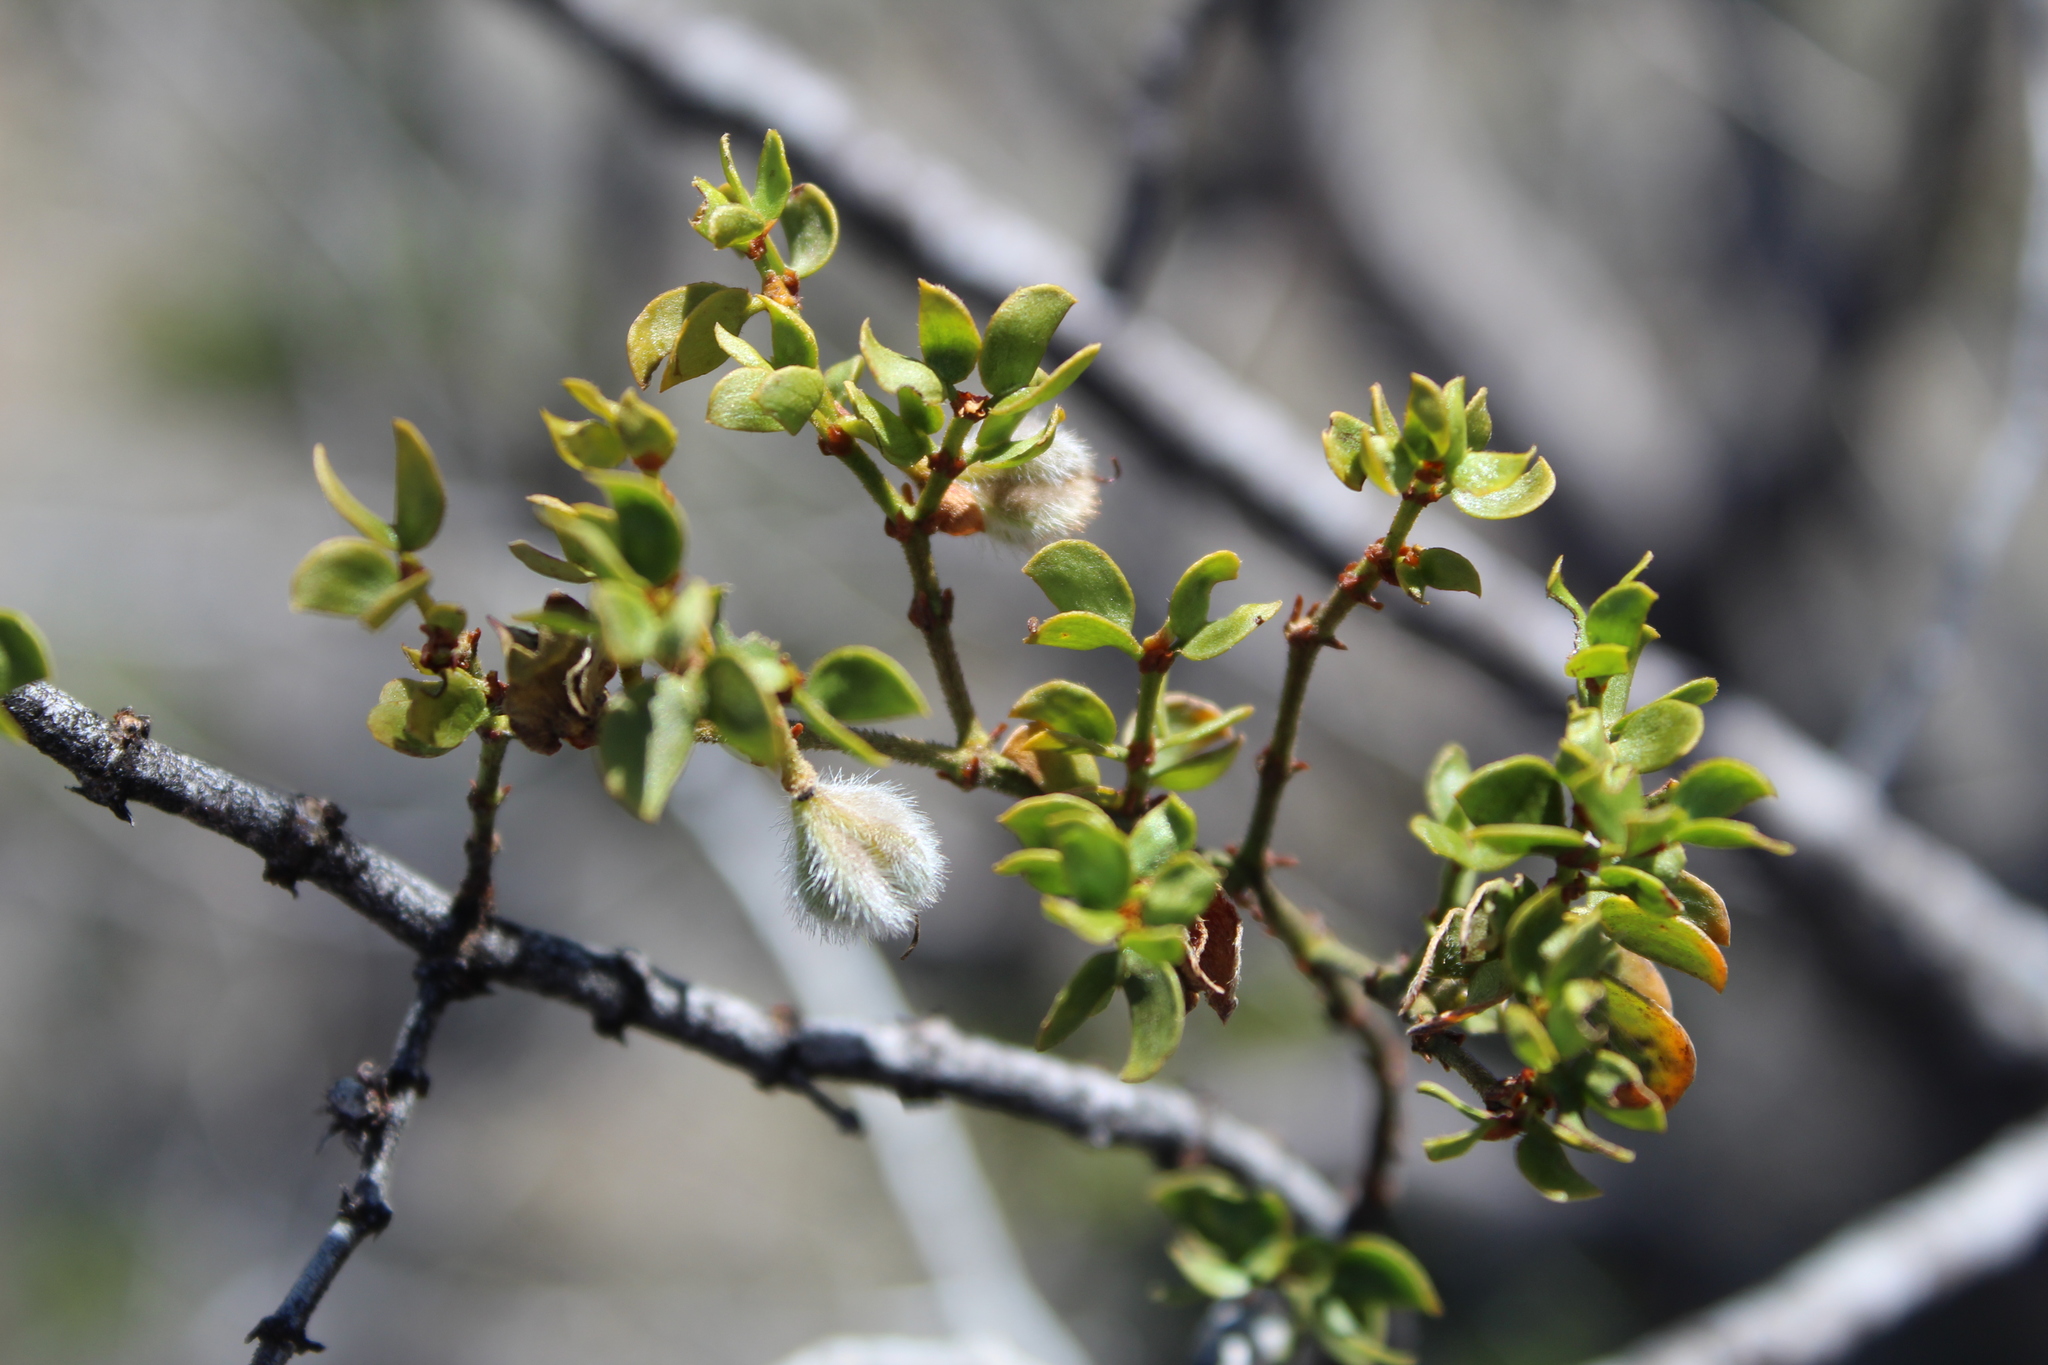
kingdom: Plantae
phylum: Tracheophyta
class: Magnoliopsida
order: Zygophyllales
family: Zygophyllaceae
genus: Larrea
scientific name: Larrea tridentata
